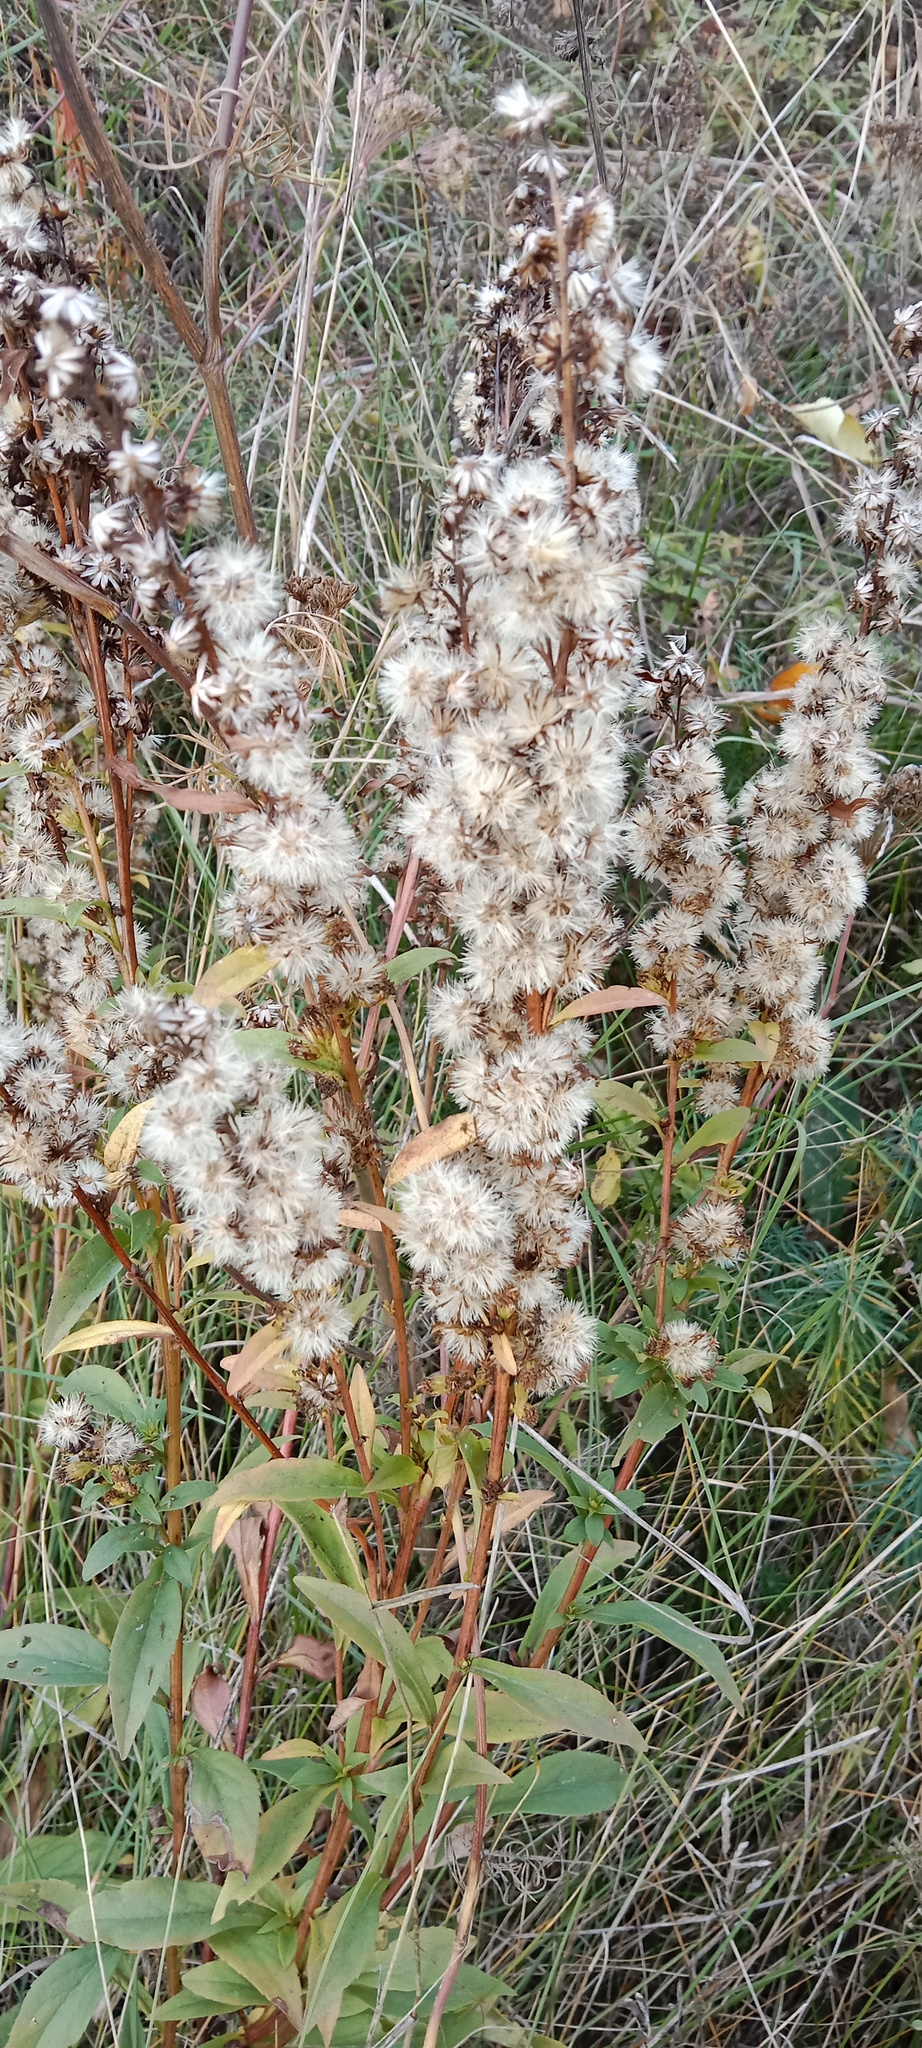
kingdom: Plantae
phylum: Tracheophyta
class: Magnoliopsida
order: Asterales
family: Asteraceae
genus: Solidago
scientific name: Solidago virgaurea
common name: Goldenrod
